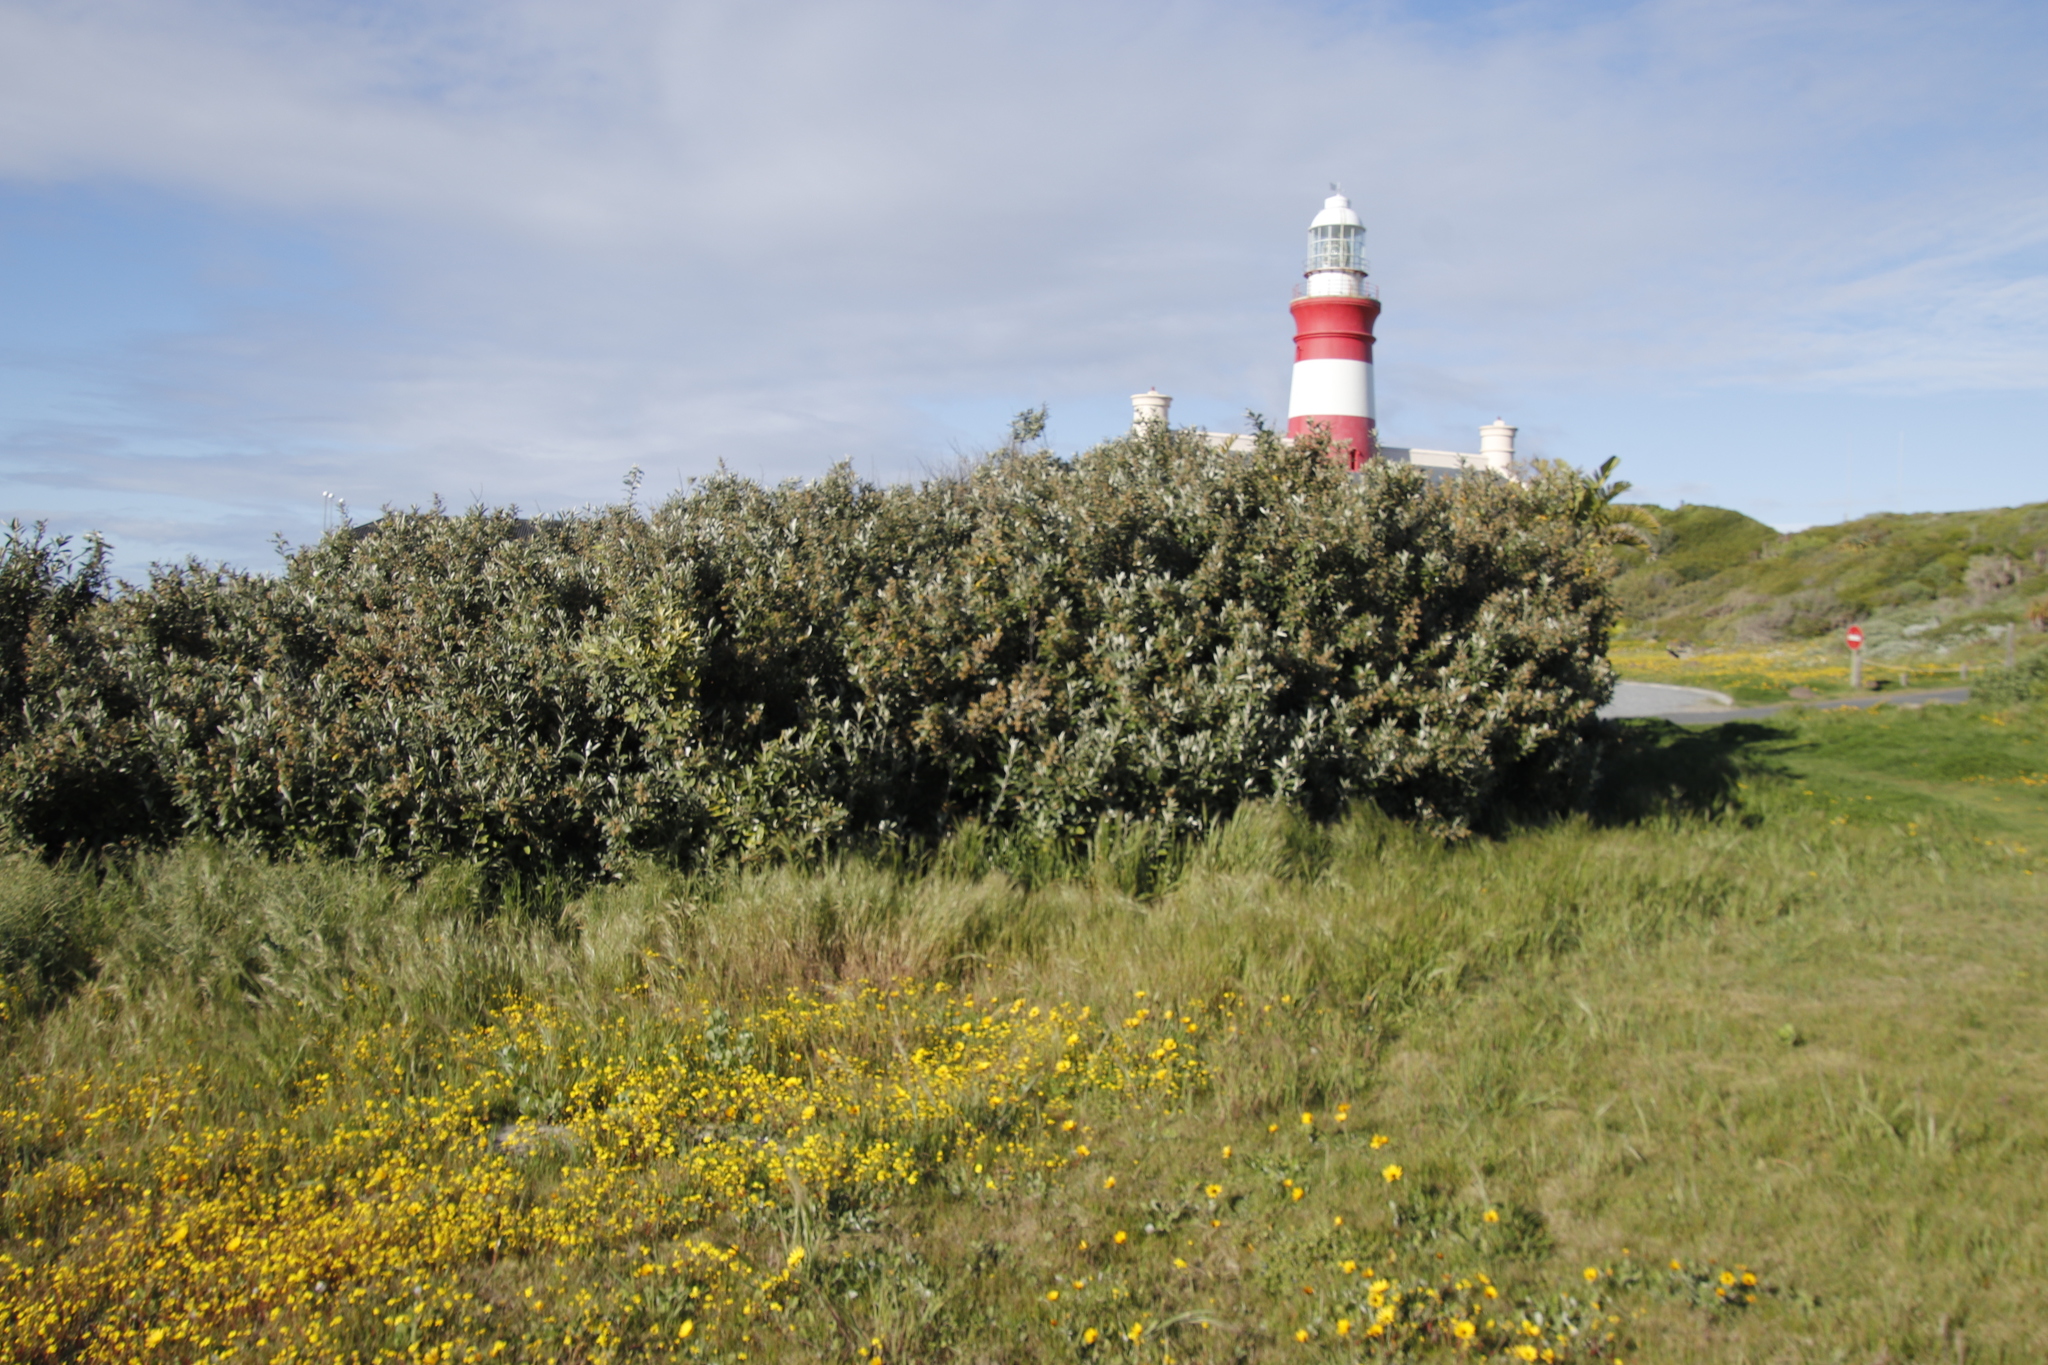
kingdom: Plantae
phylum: Tracheophyta
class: Magnoliopsida
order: Asterales
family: Asteraceae
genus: Tarchonanthus
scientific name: Tarchonanthus littoralis
